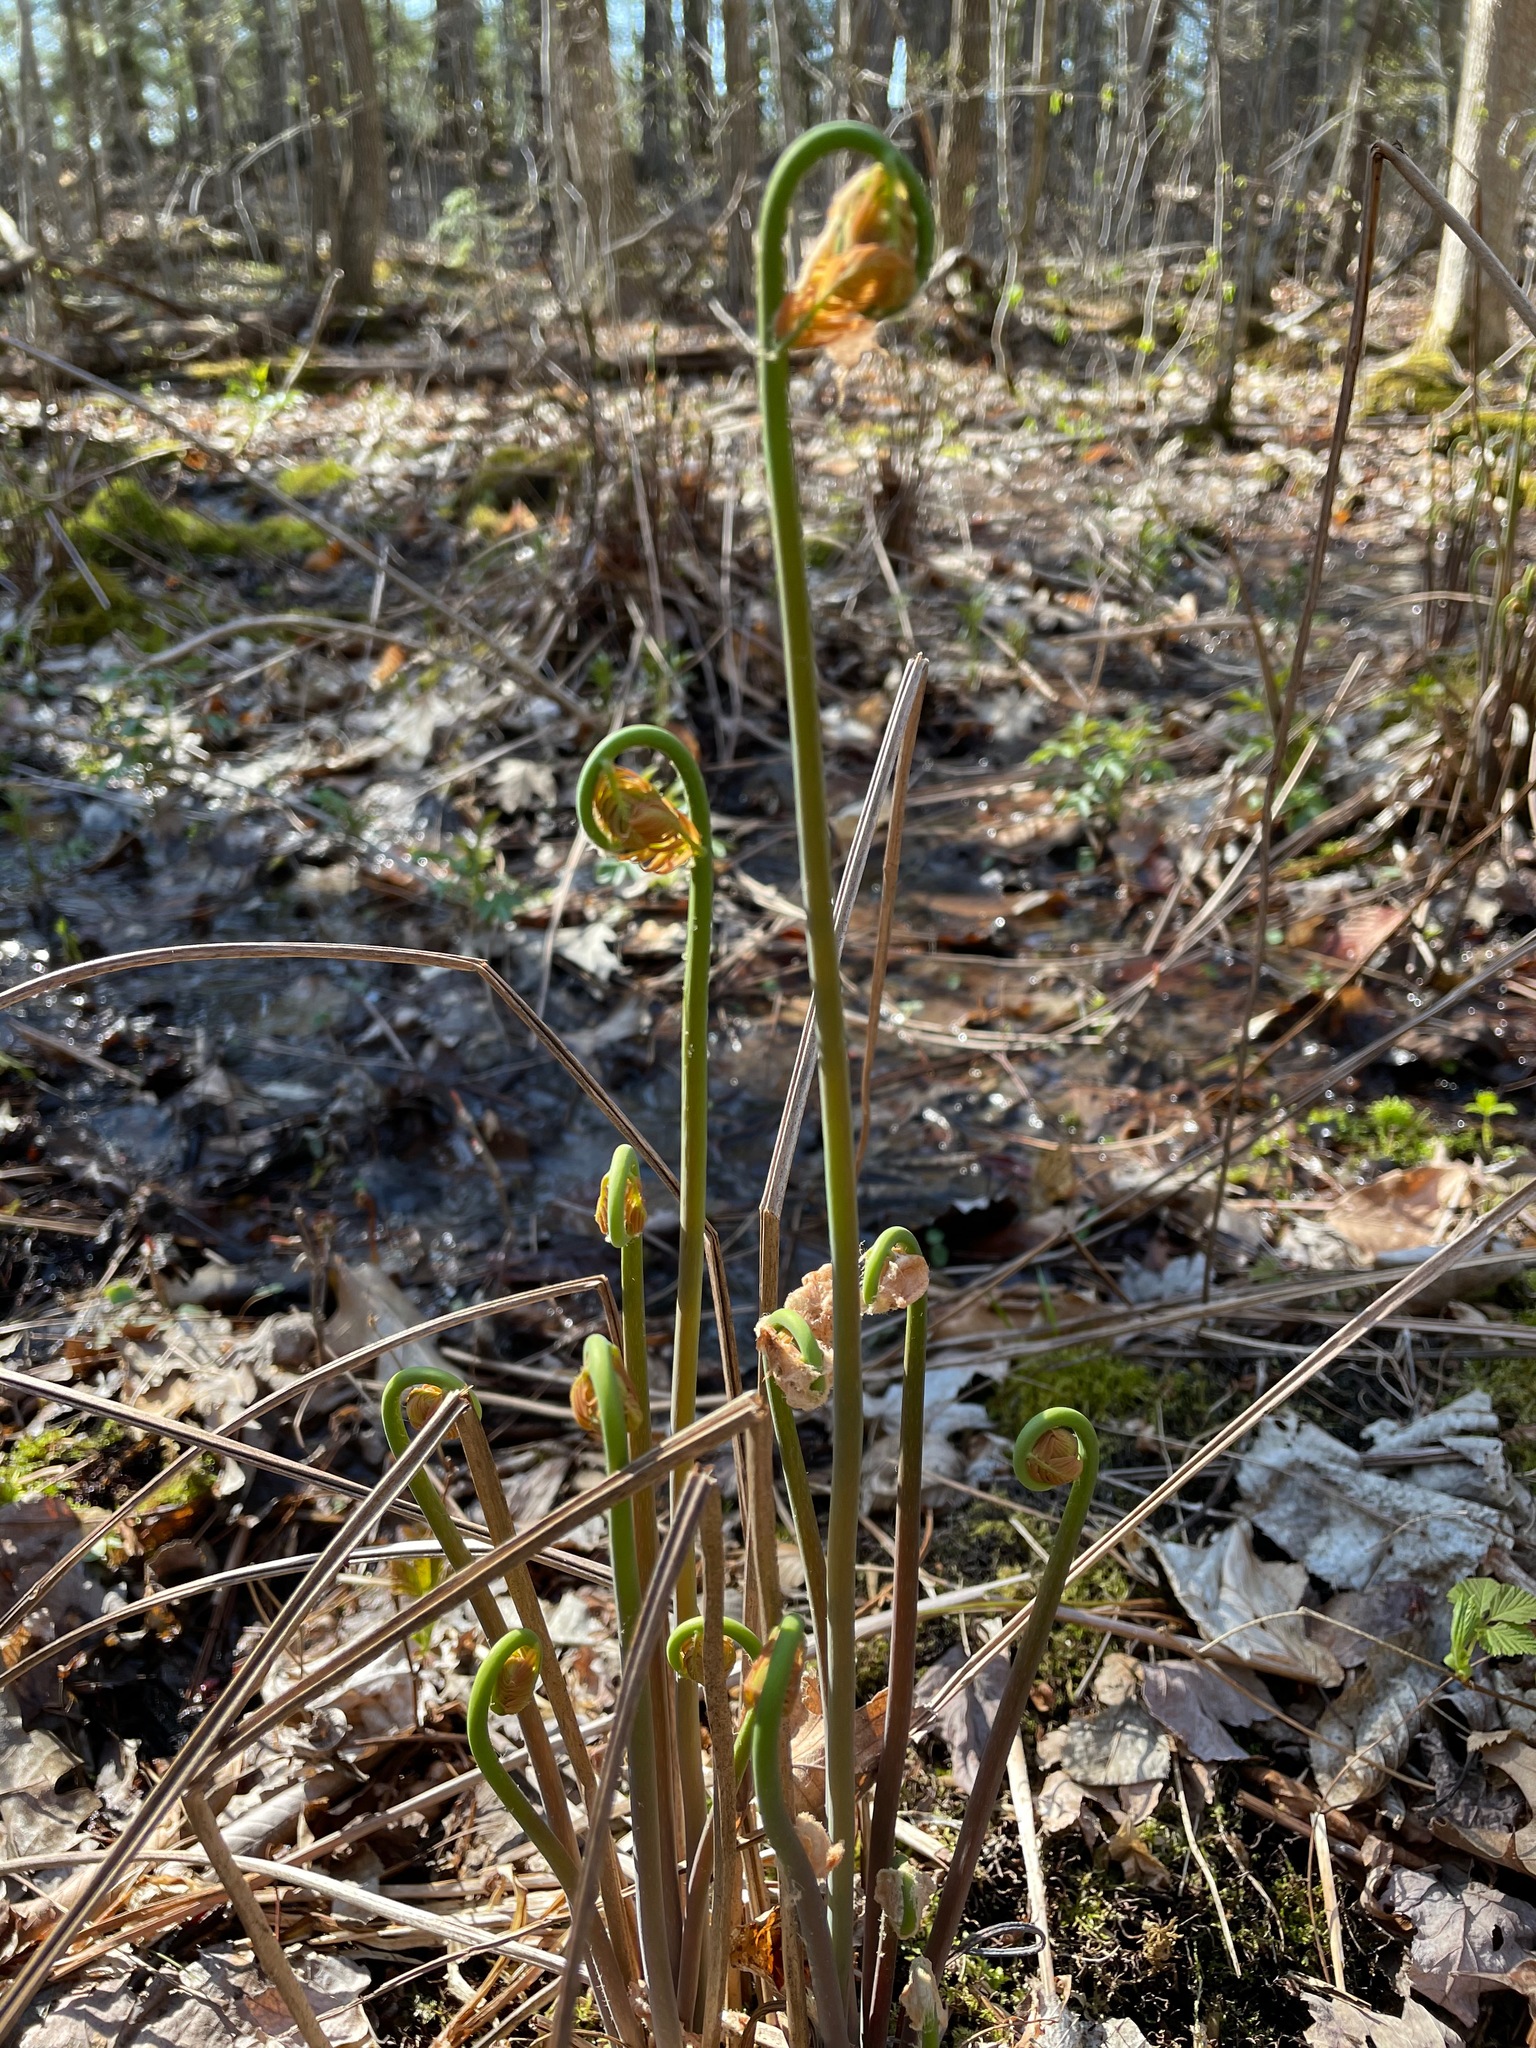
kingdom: Plantae
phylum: Tracheophyta
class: Polypodiopsida
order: Osmundales
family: Osmundaceae
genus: Osmunda
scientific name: Osmunda spectabilis
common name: American royal fern
